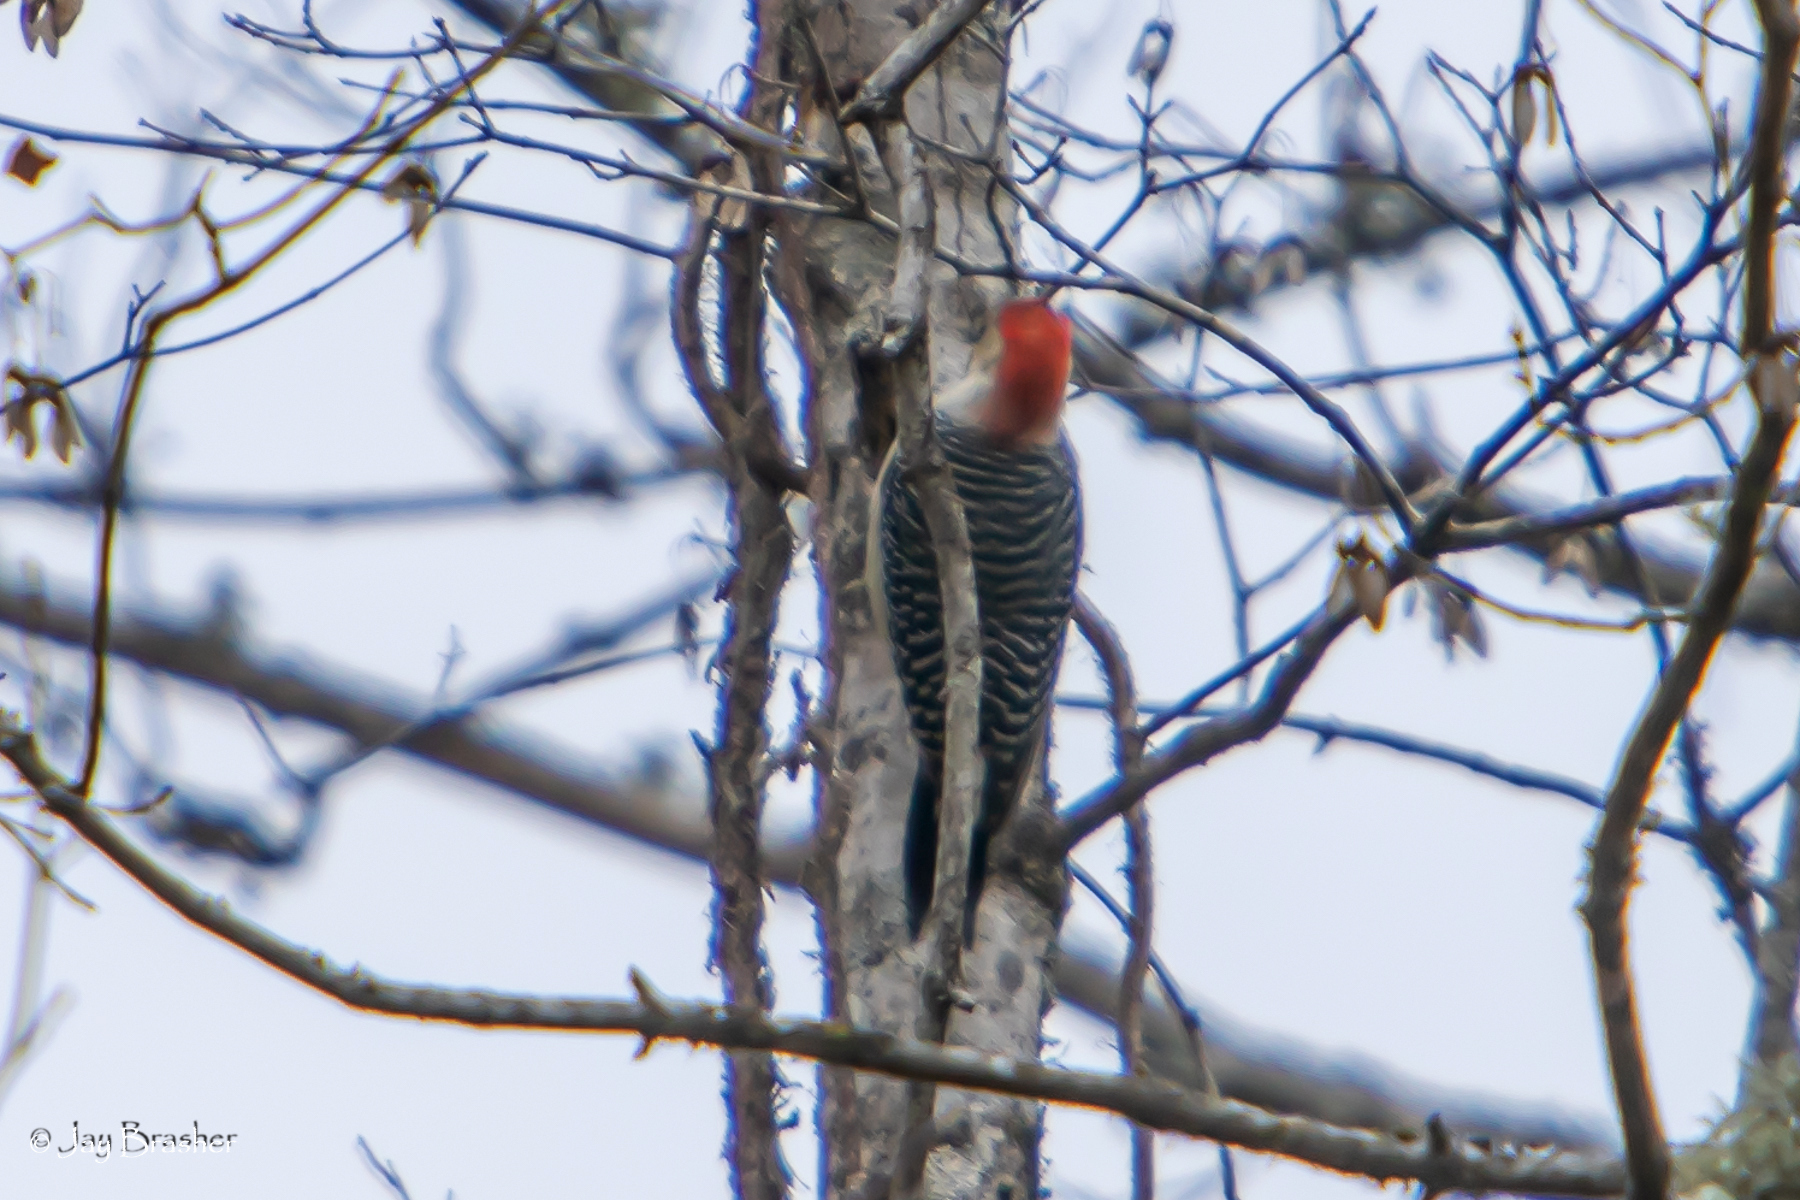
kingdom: Animalia
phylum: Chordata
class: Aves
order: Piciformes
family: Picidae
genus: Melanerpes
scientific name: Melanerpes carolinus
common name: Red-bellied woodpecker
